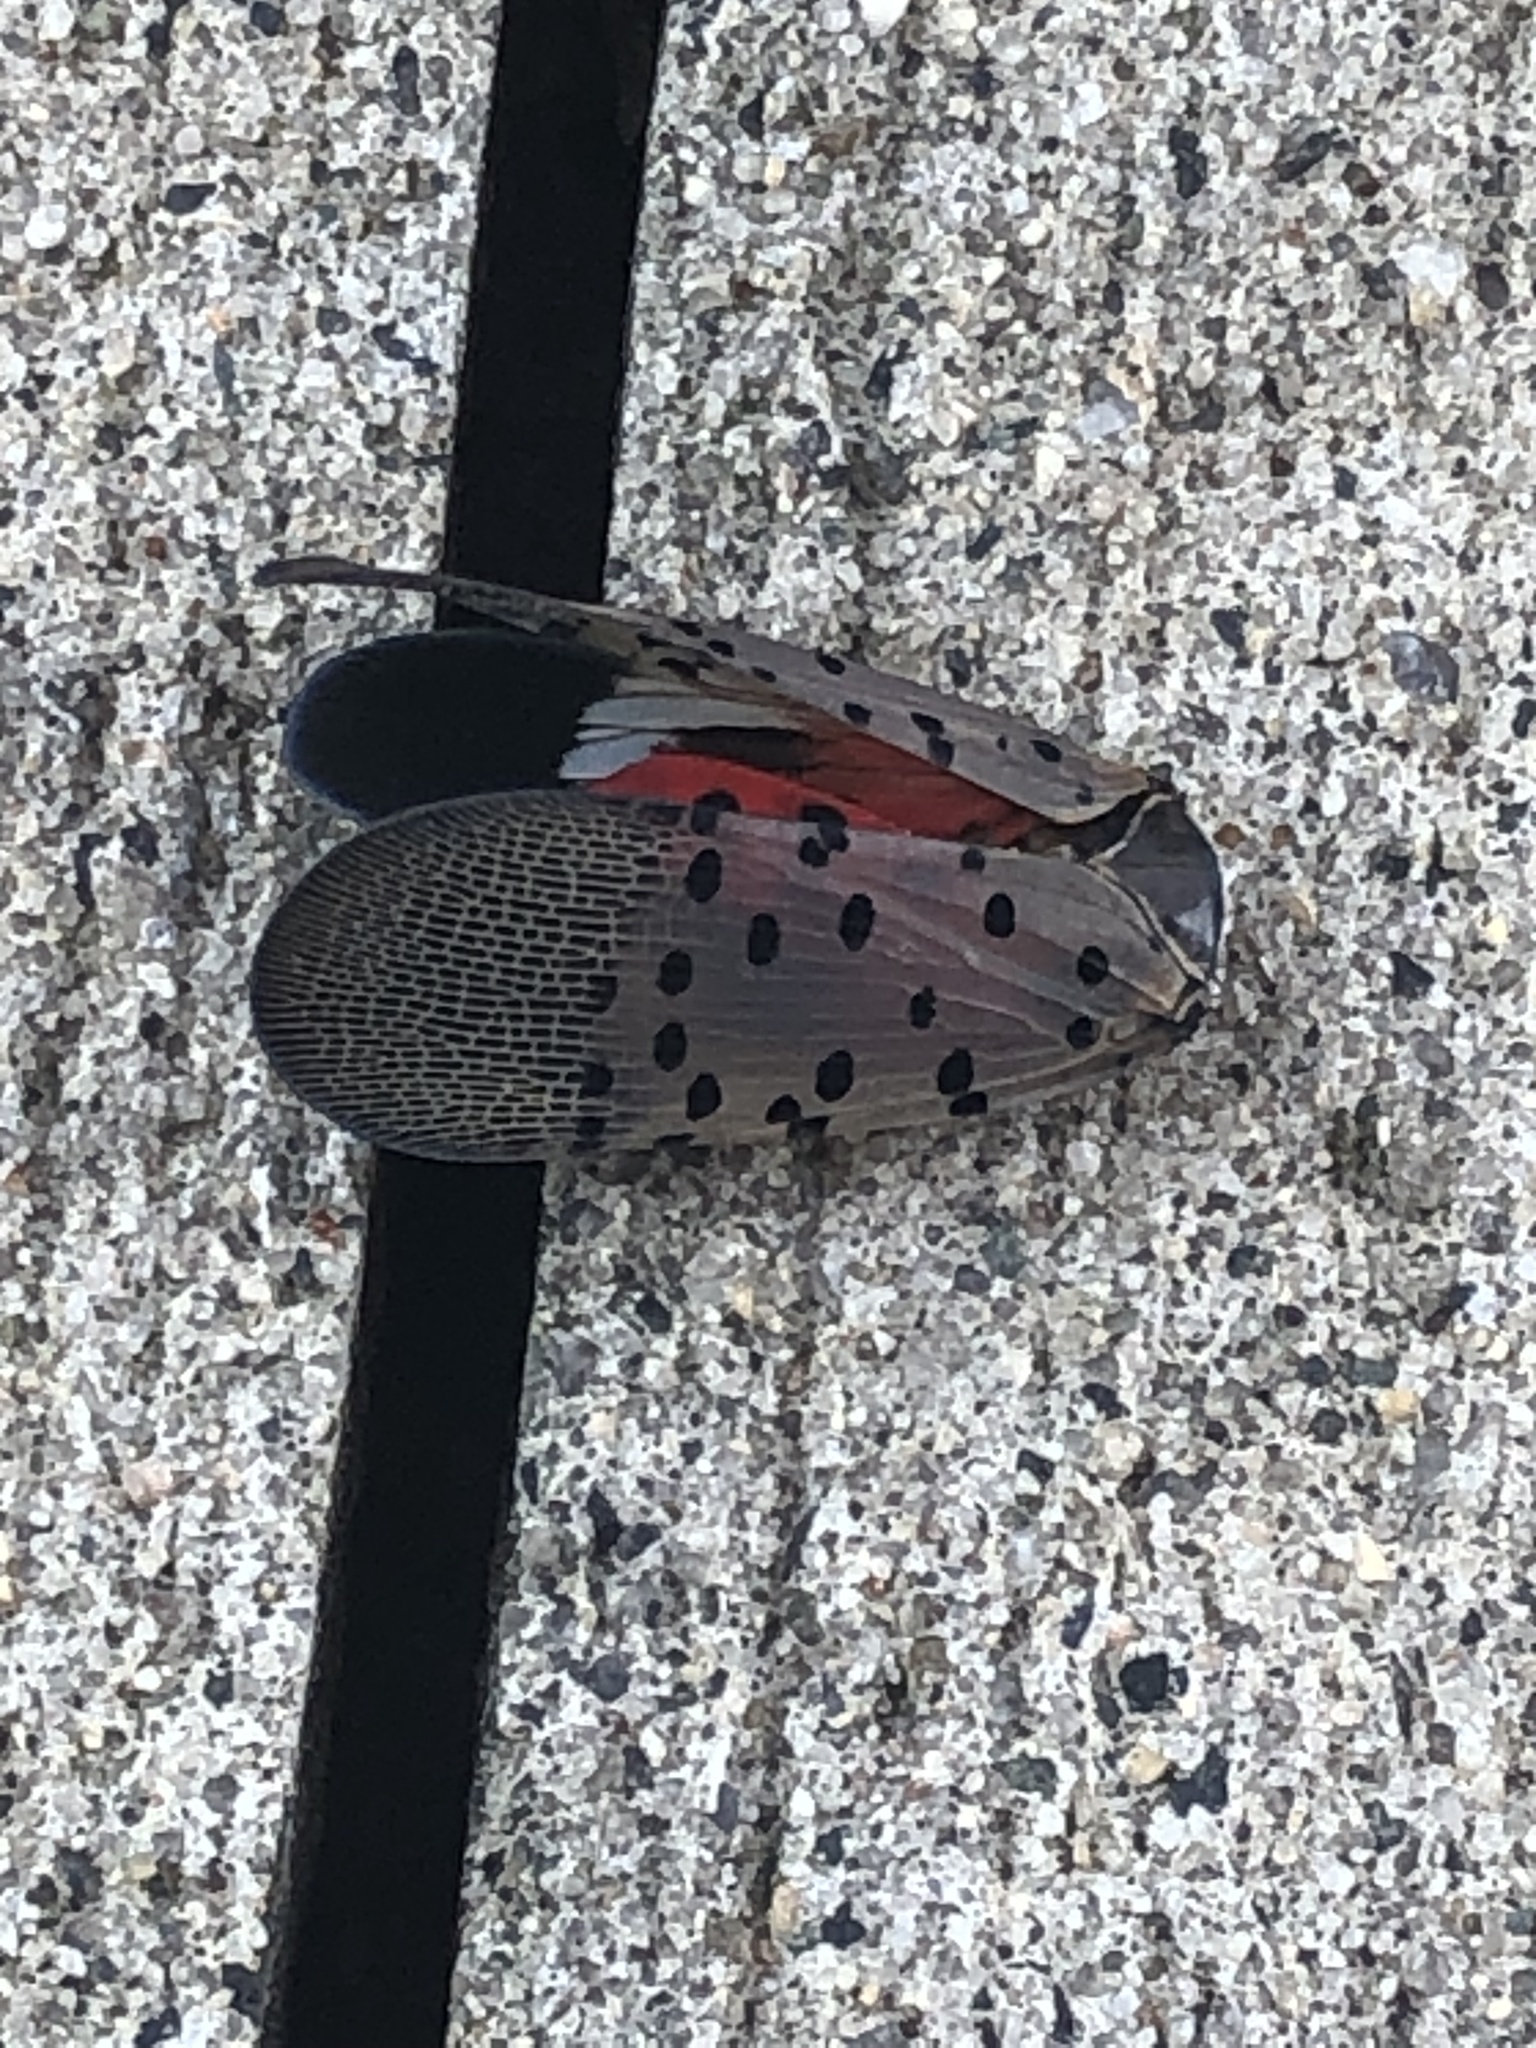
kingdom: Animalia
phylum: Arthropoda
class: Insecta
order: Hemiptera
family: Fulgoridae
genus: Lycorma
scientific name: Lycorma delicatula
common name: Spotted lanternfly
